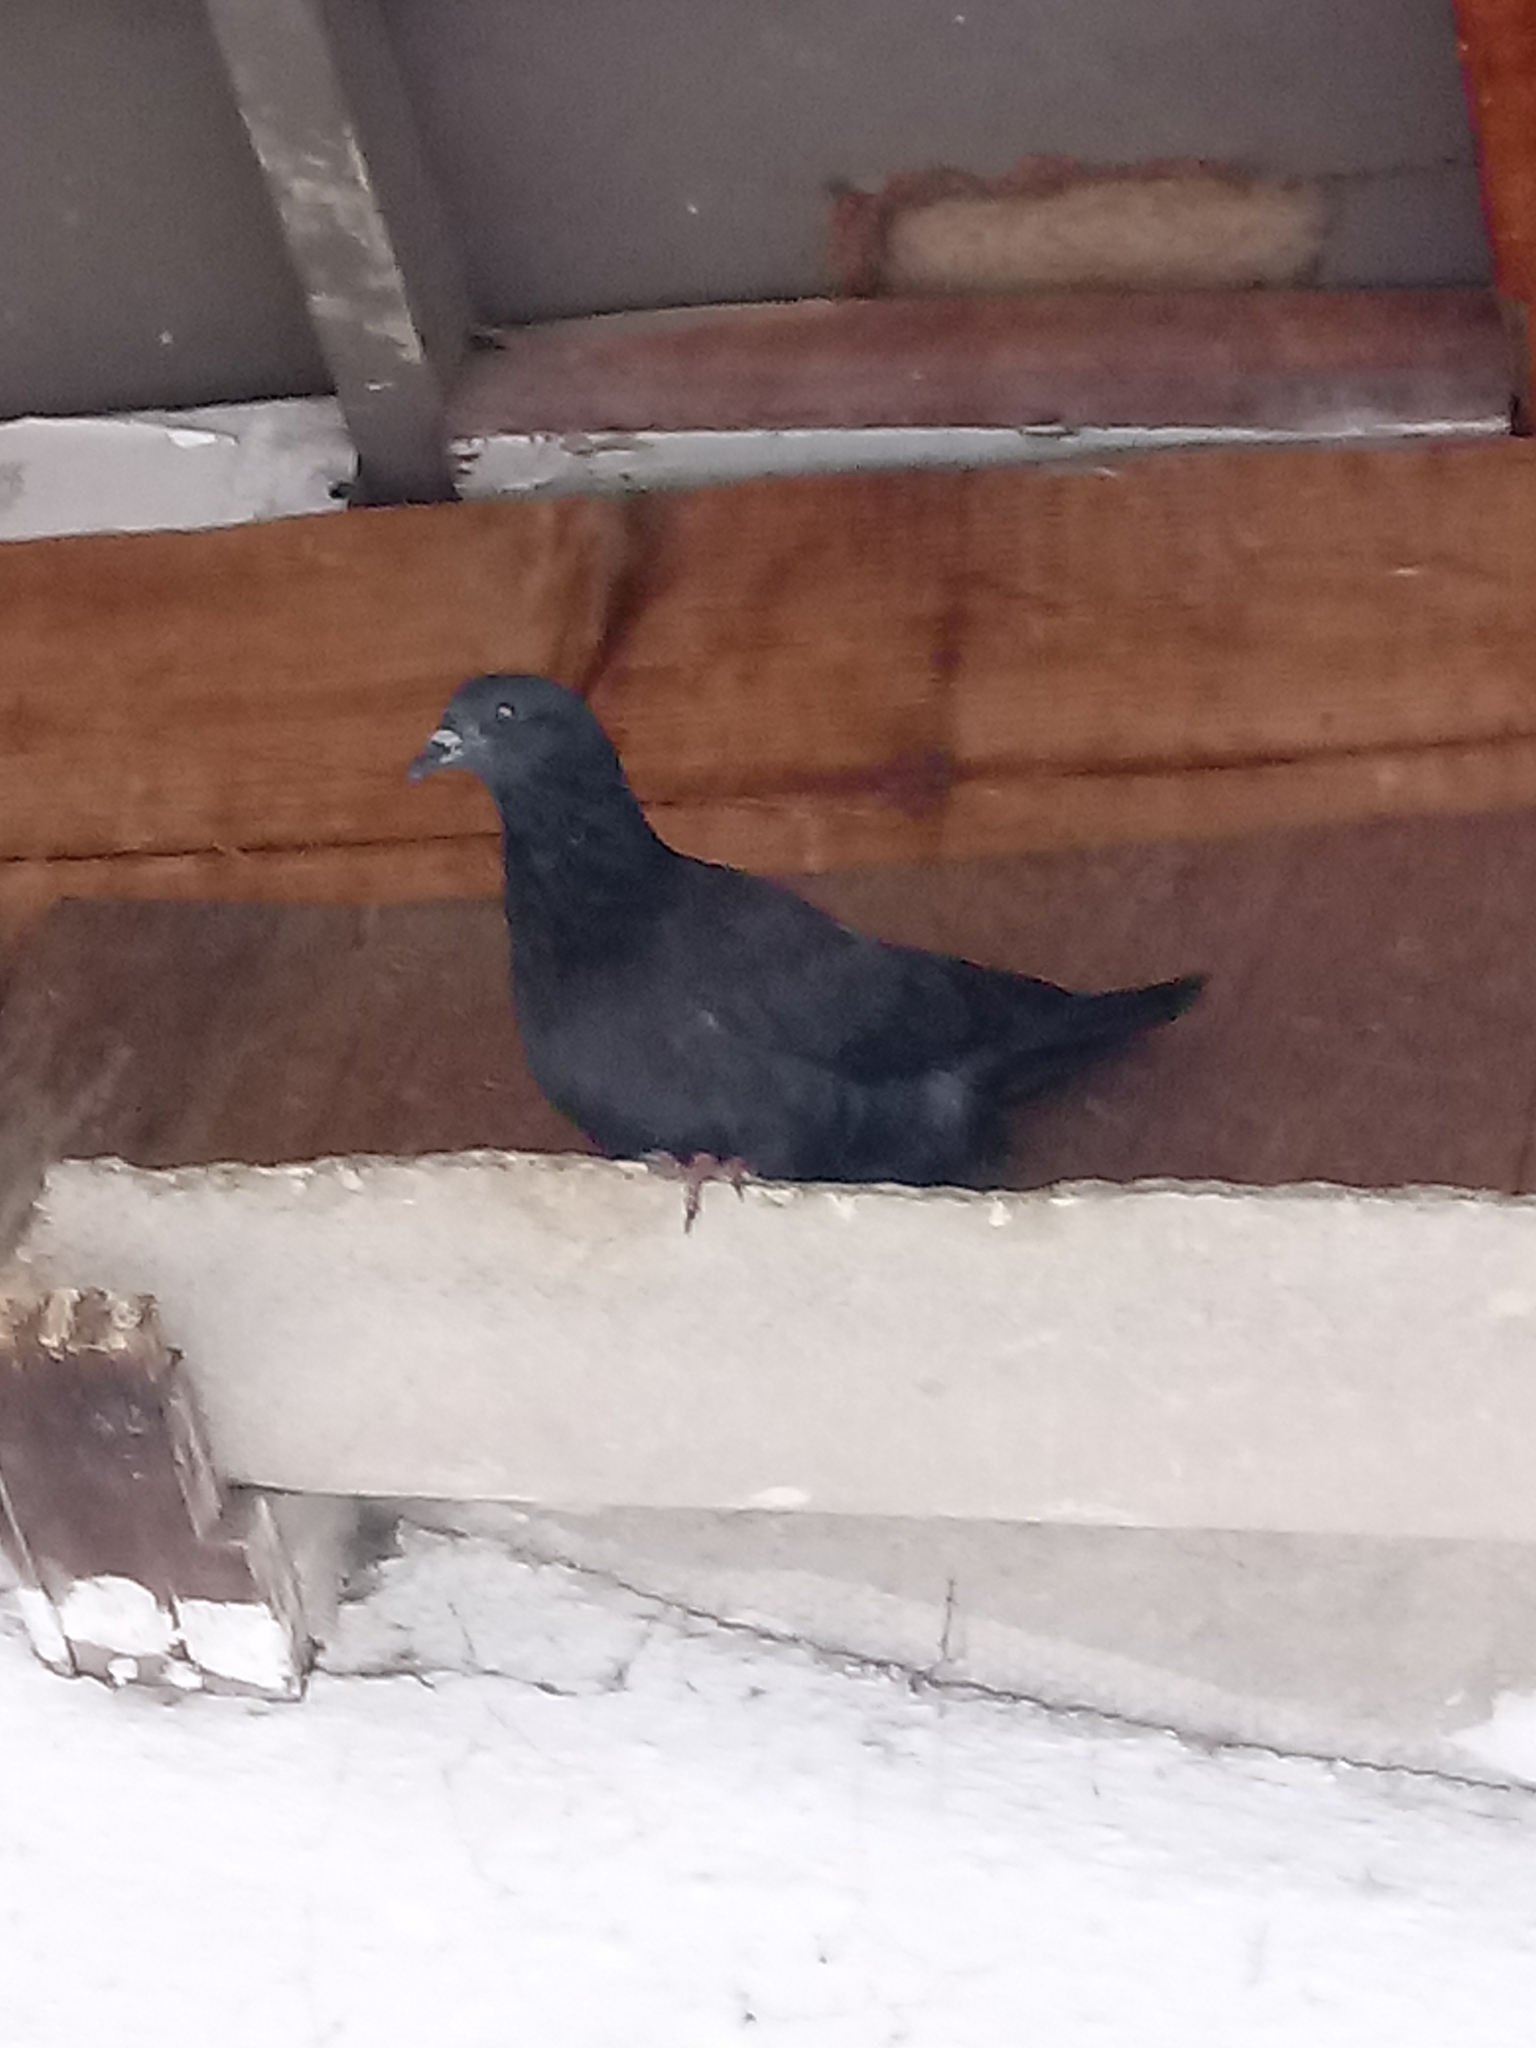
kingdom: Animalia
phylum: Chordata
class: Aves
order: Columbiformes
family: Columbidae
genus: Columba
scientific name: Columba livia
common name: Rock pigeon
